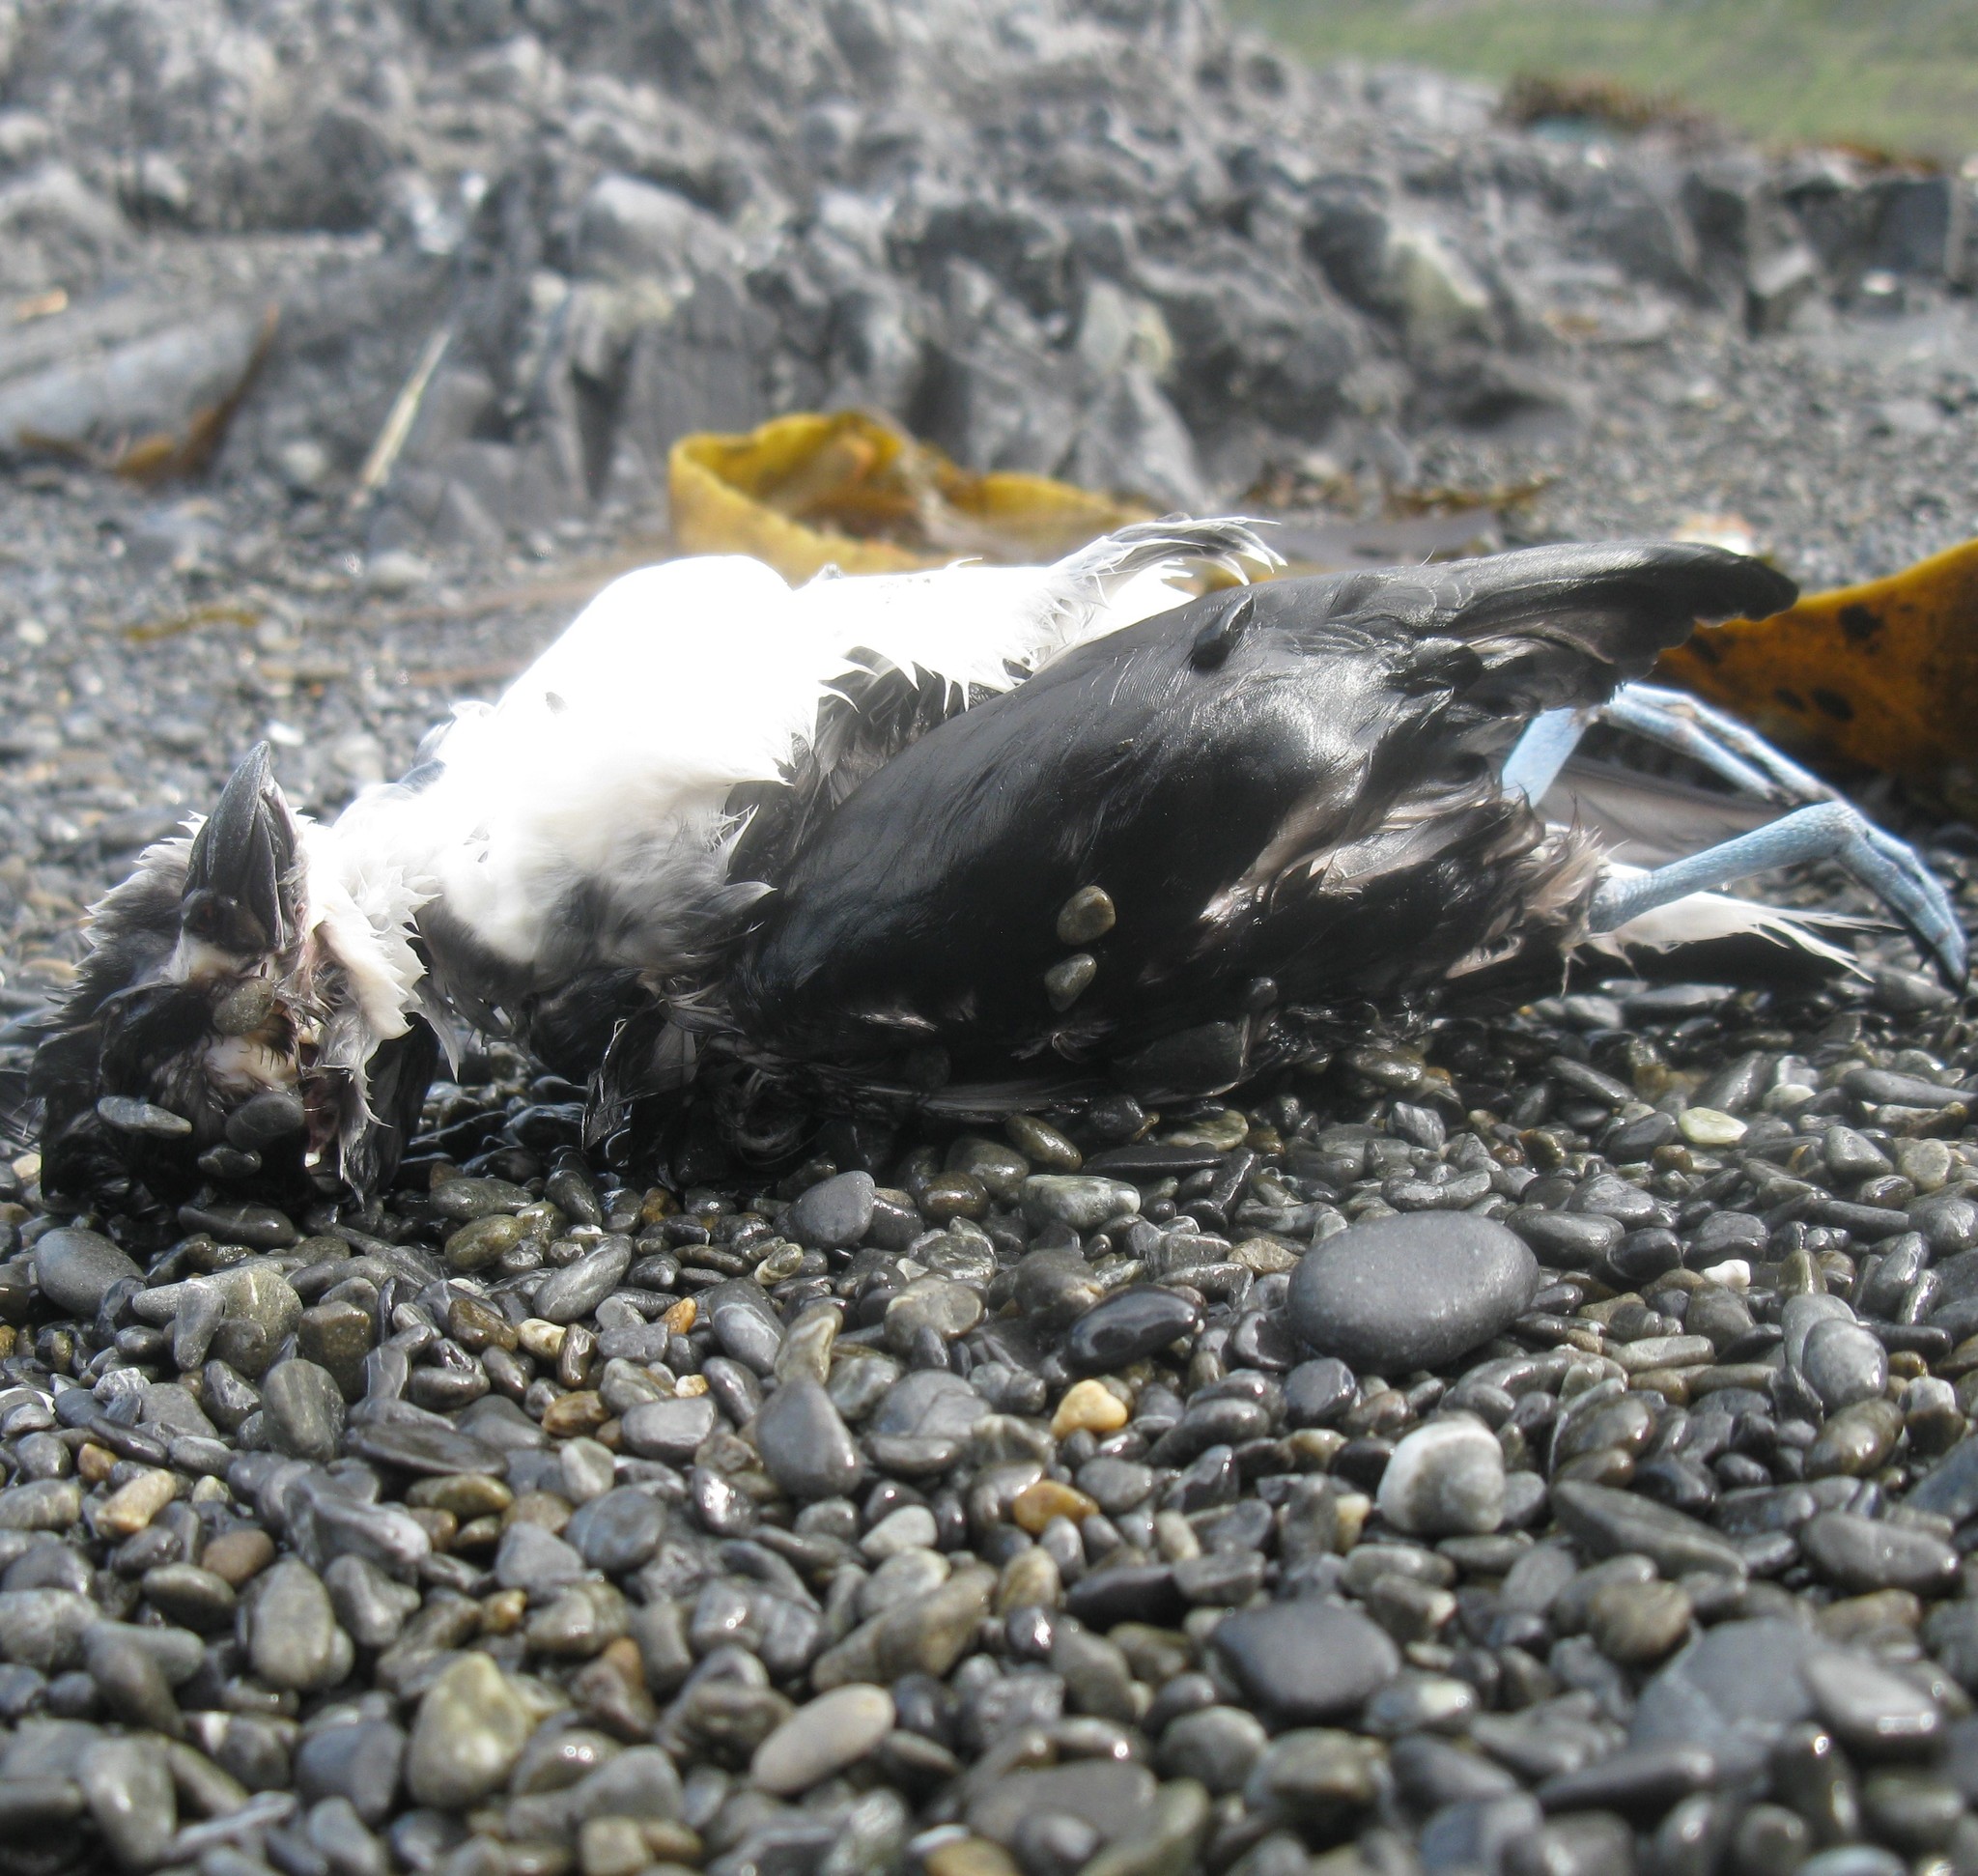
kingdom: Animalia
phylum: Chordata
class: Aves
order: Procellariiformes
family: Pelecanoididae
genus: Pelecanoides
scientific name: Pelecanoides urinatrix
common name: Common diving-petrel
